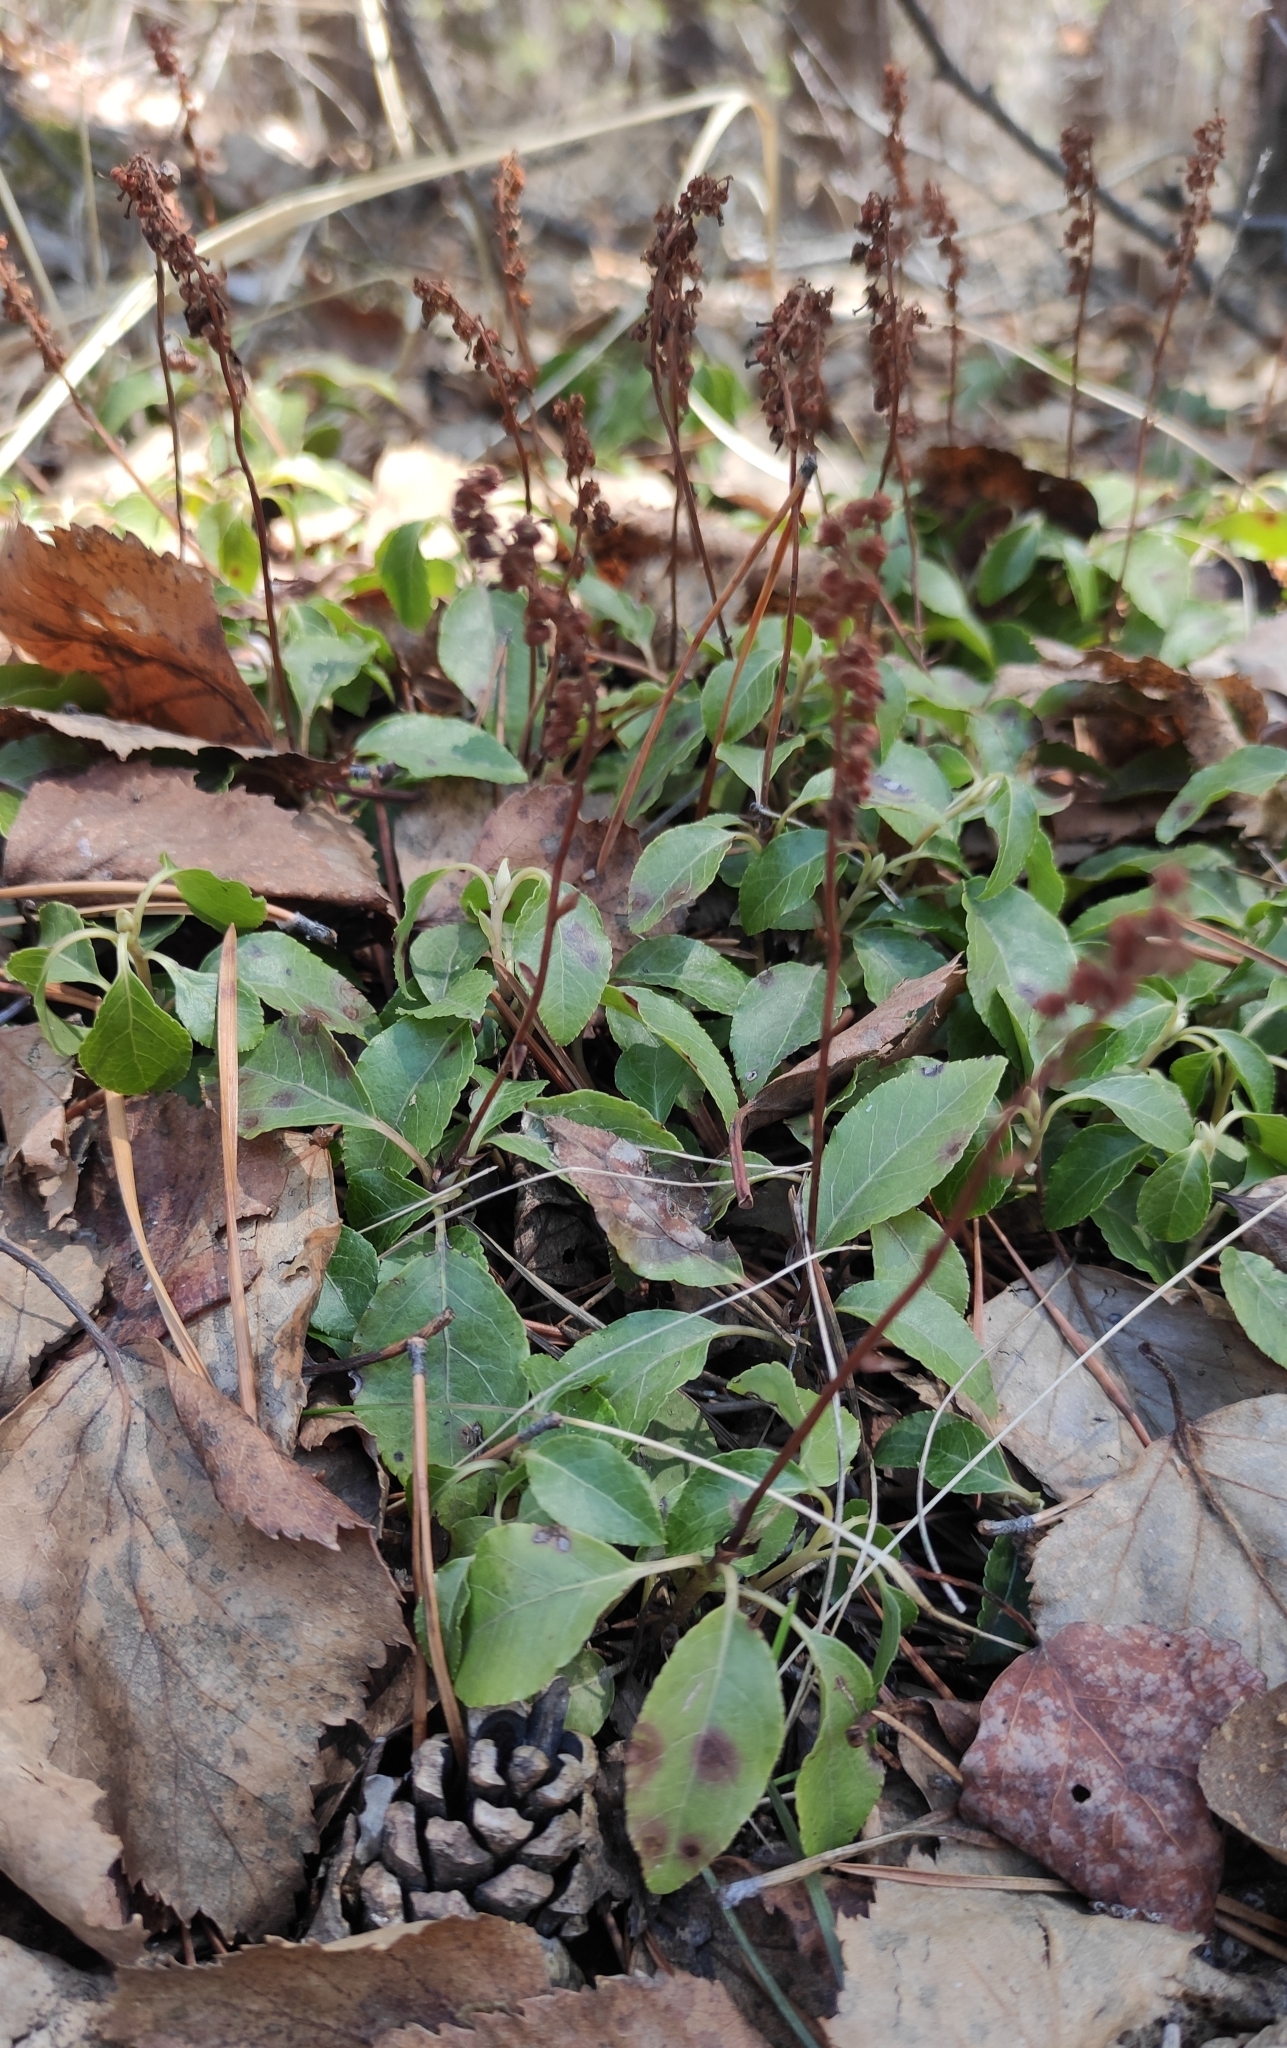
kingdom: Plantae
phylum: Tracheophyta
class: Magnoliopsida
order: Ericales
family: Ericaceae
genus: Orthilia
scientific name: Orthilia secunda
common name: One-sided orthilia
